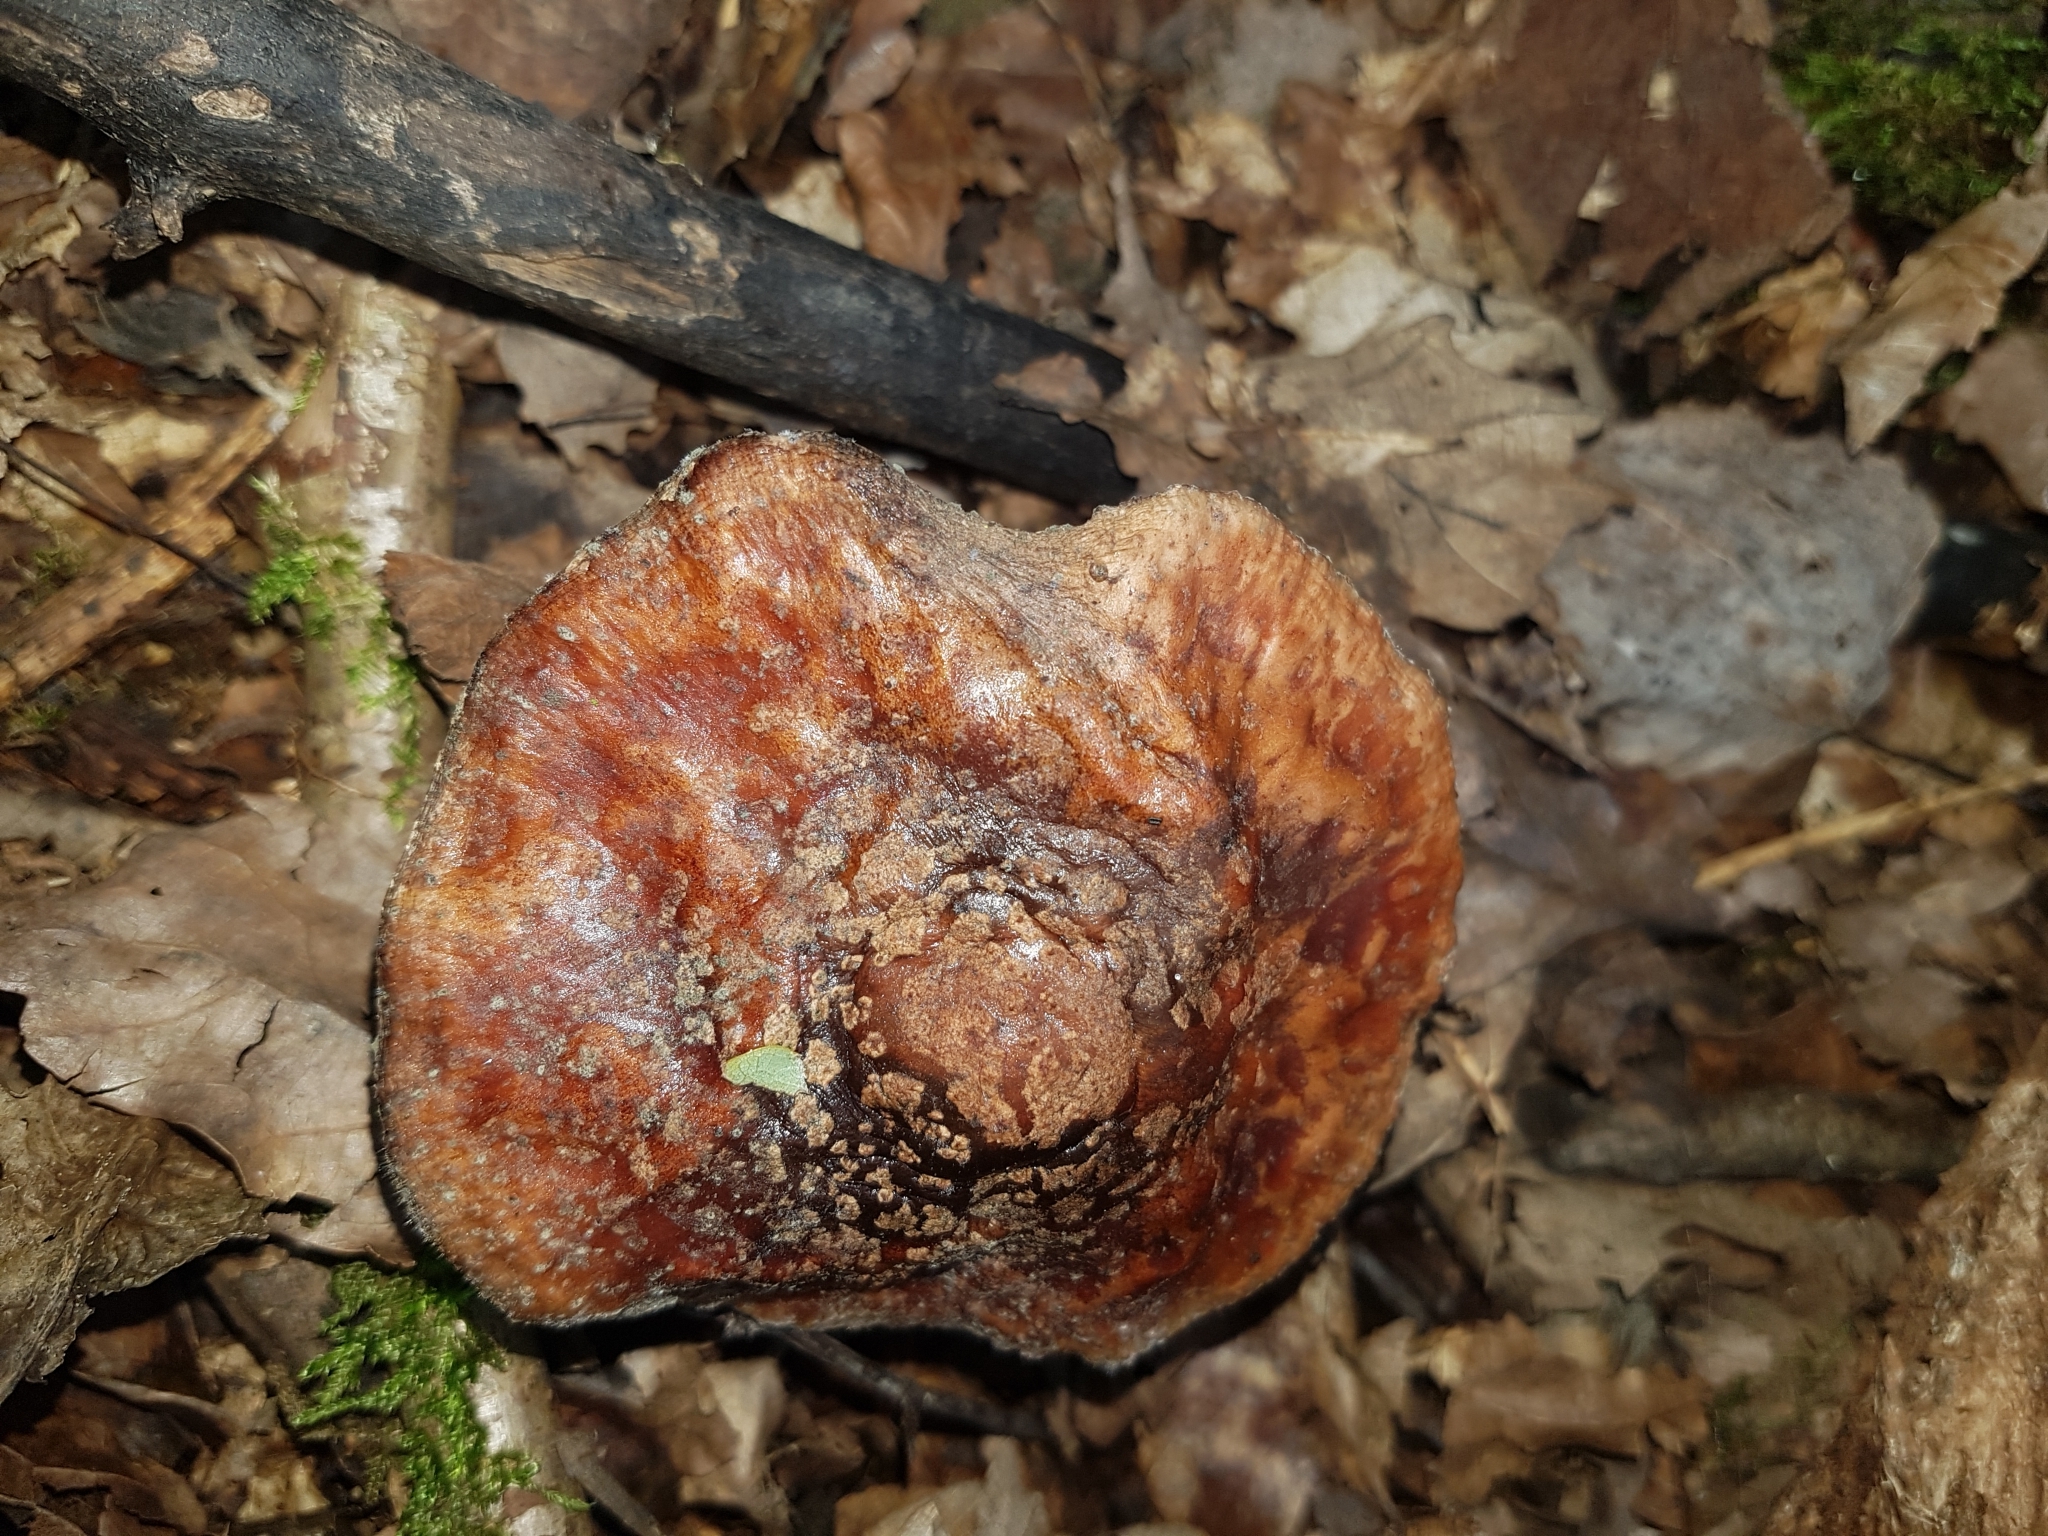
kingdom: Fungi
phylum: Mucoromycota
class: Mucoromycetes
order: Mucorales
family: Rhizopodaceae
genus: Syzygites
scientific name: Syzygites megalocarpus
